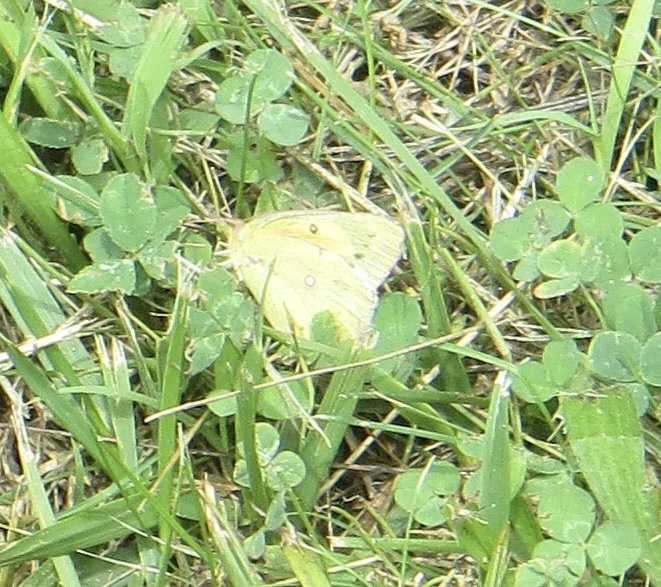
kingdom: Animalia
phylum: Arthropoda
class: Insecta
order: Lepidoptera
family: Pieridae
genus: Colias
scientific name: Colias eurytheme
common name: Alfalfa butterfly
